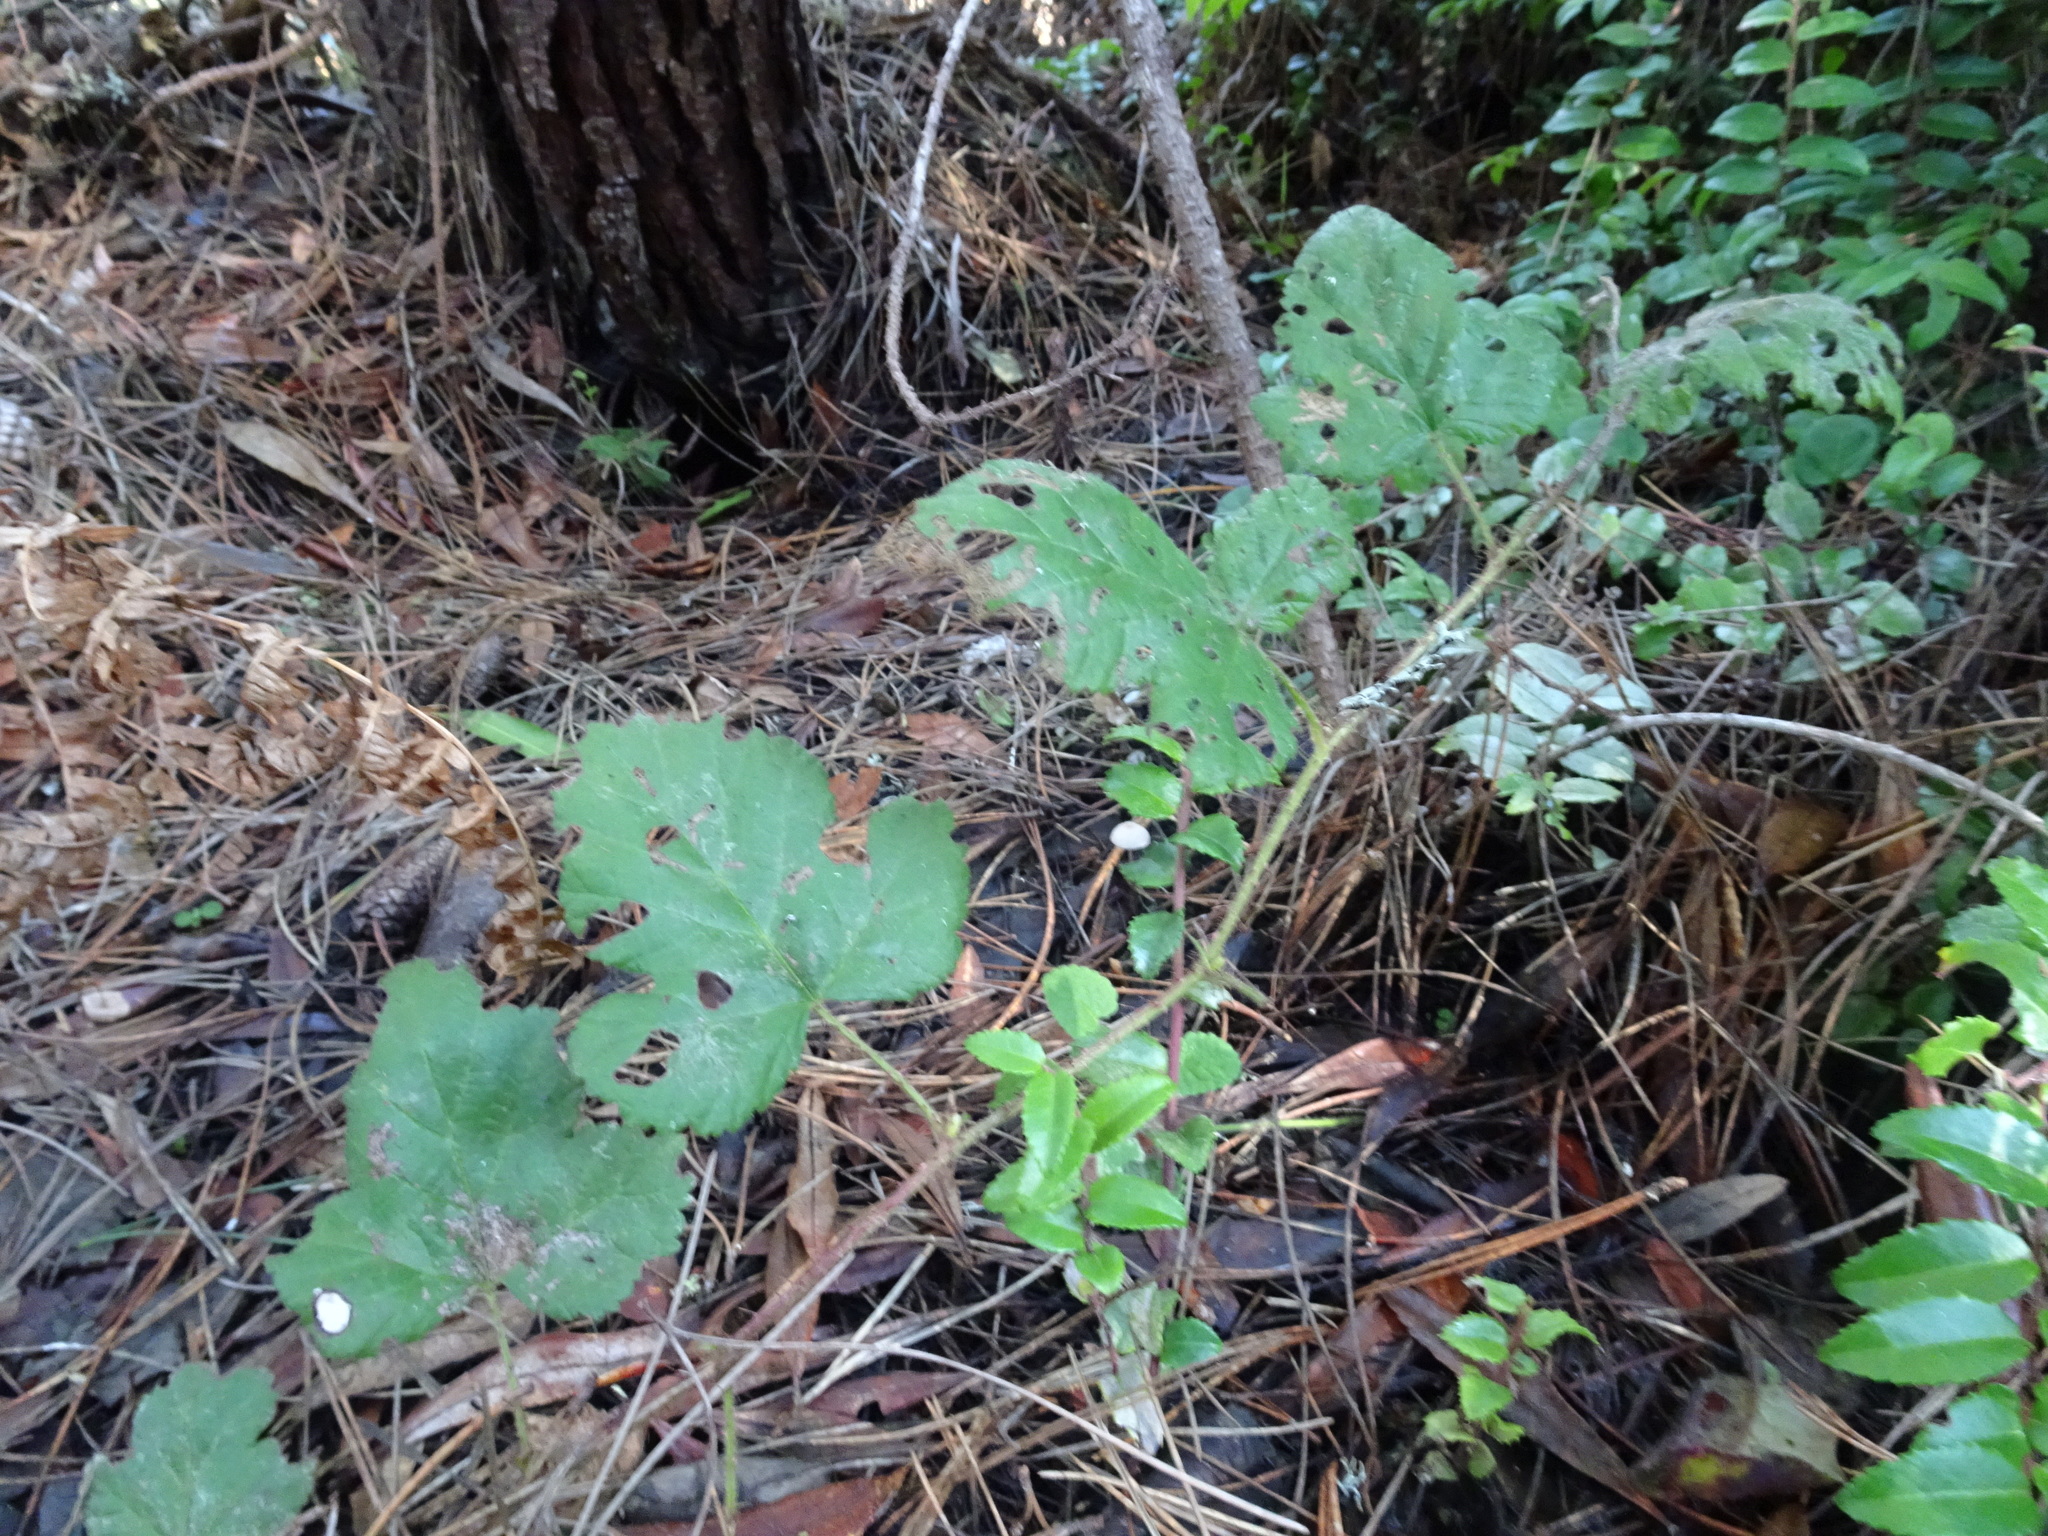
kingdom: Plantae
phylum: Tracheophyta
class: Magnoliopsida
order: Rosales
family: Rosaceae
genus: Rubus
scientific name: Rubus ursinus
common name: Pacific blackberry
